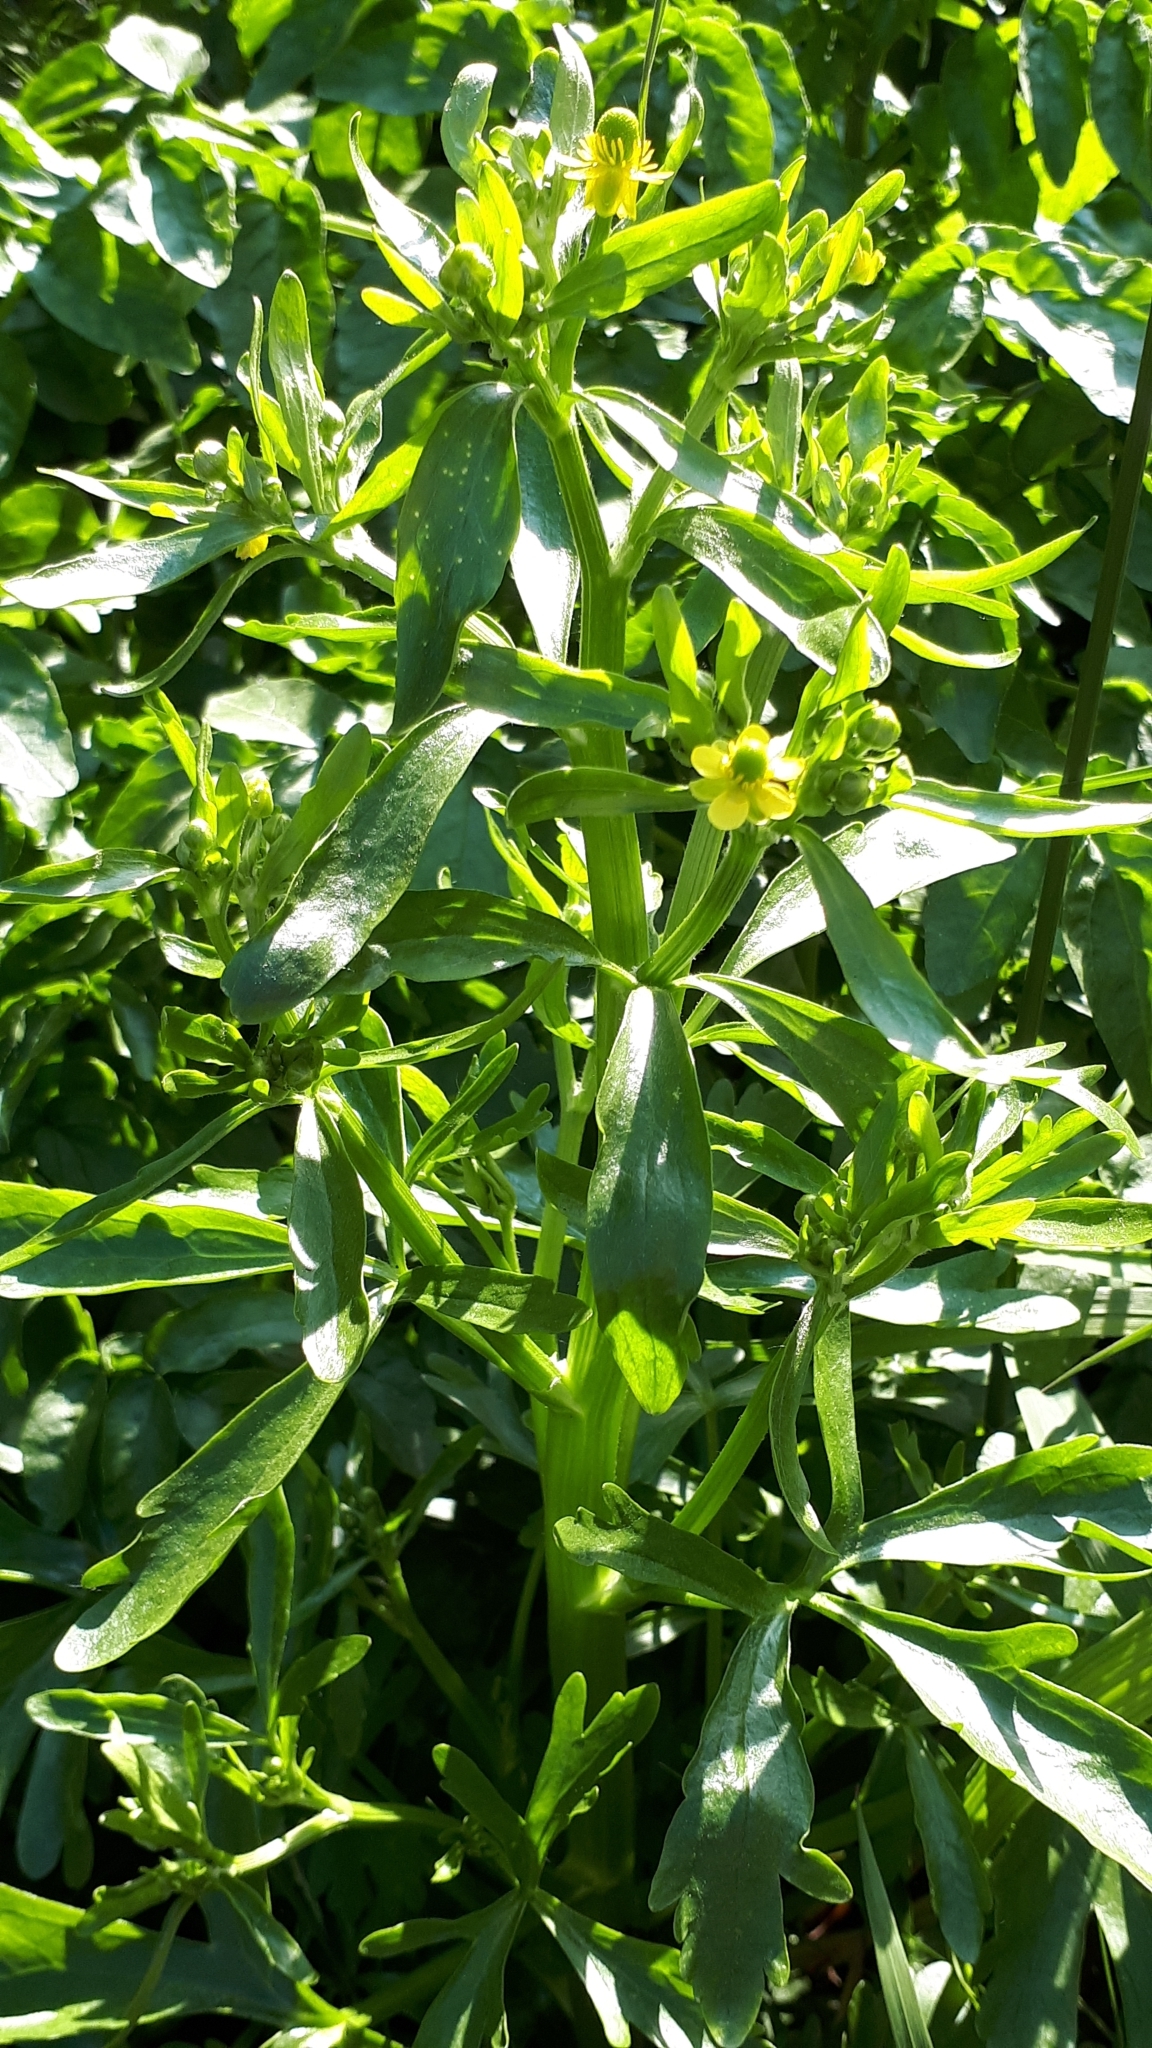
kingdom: Plantae
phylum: Tracheophyta
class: Magnoliopsida
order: Ranunculales
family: Ranunculaceae
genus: Ranunculus
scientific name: Ranunculus sceleratus
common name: Celery-leaved buttercup
